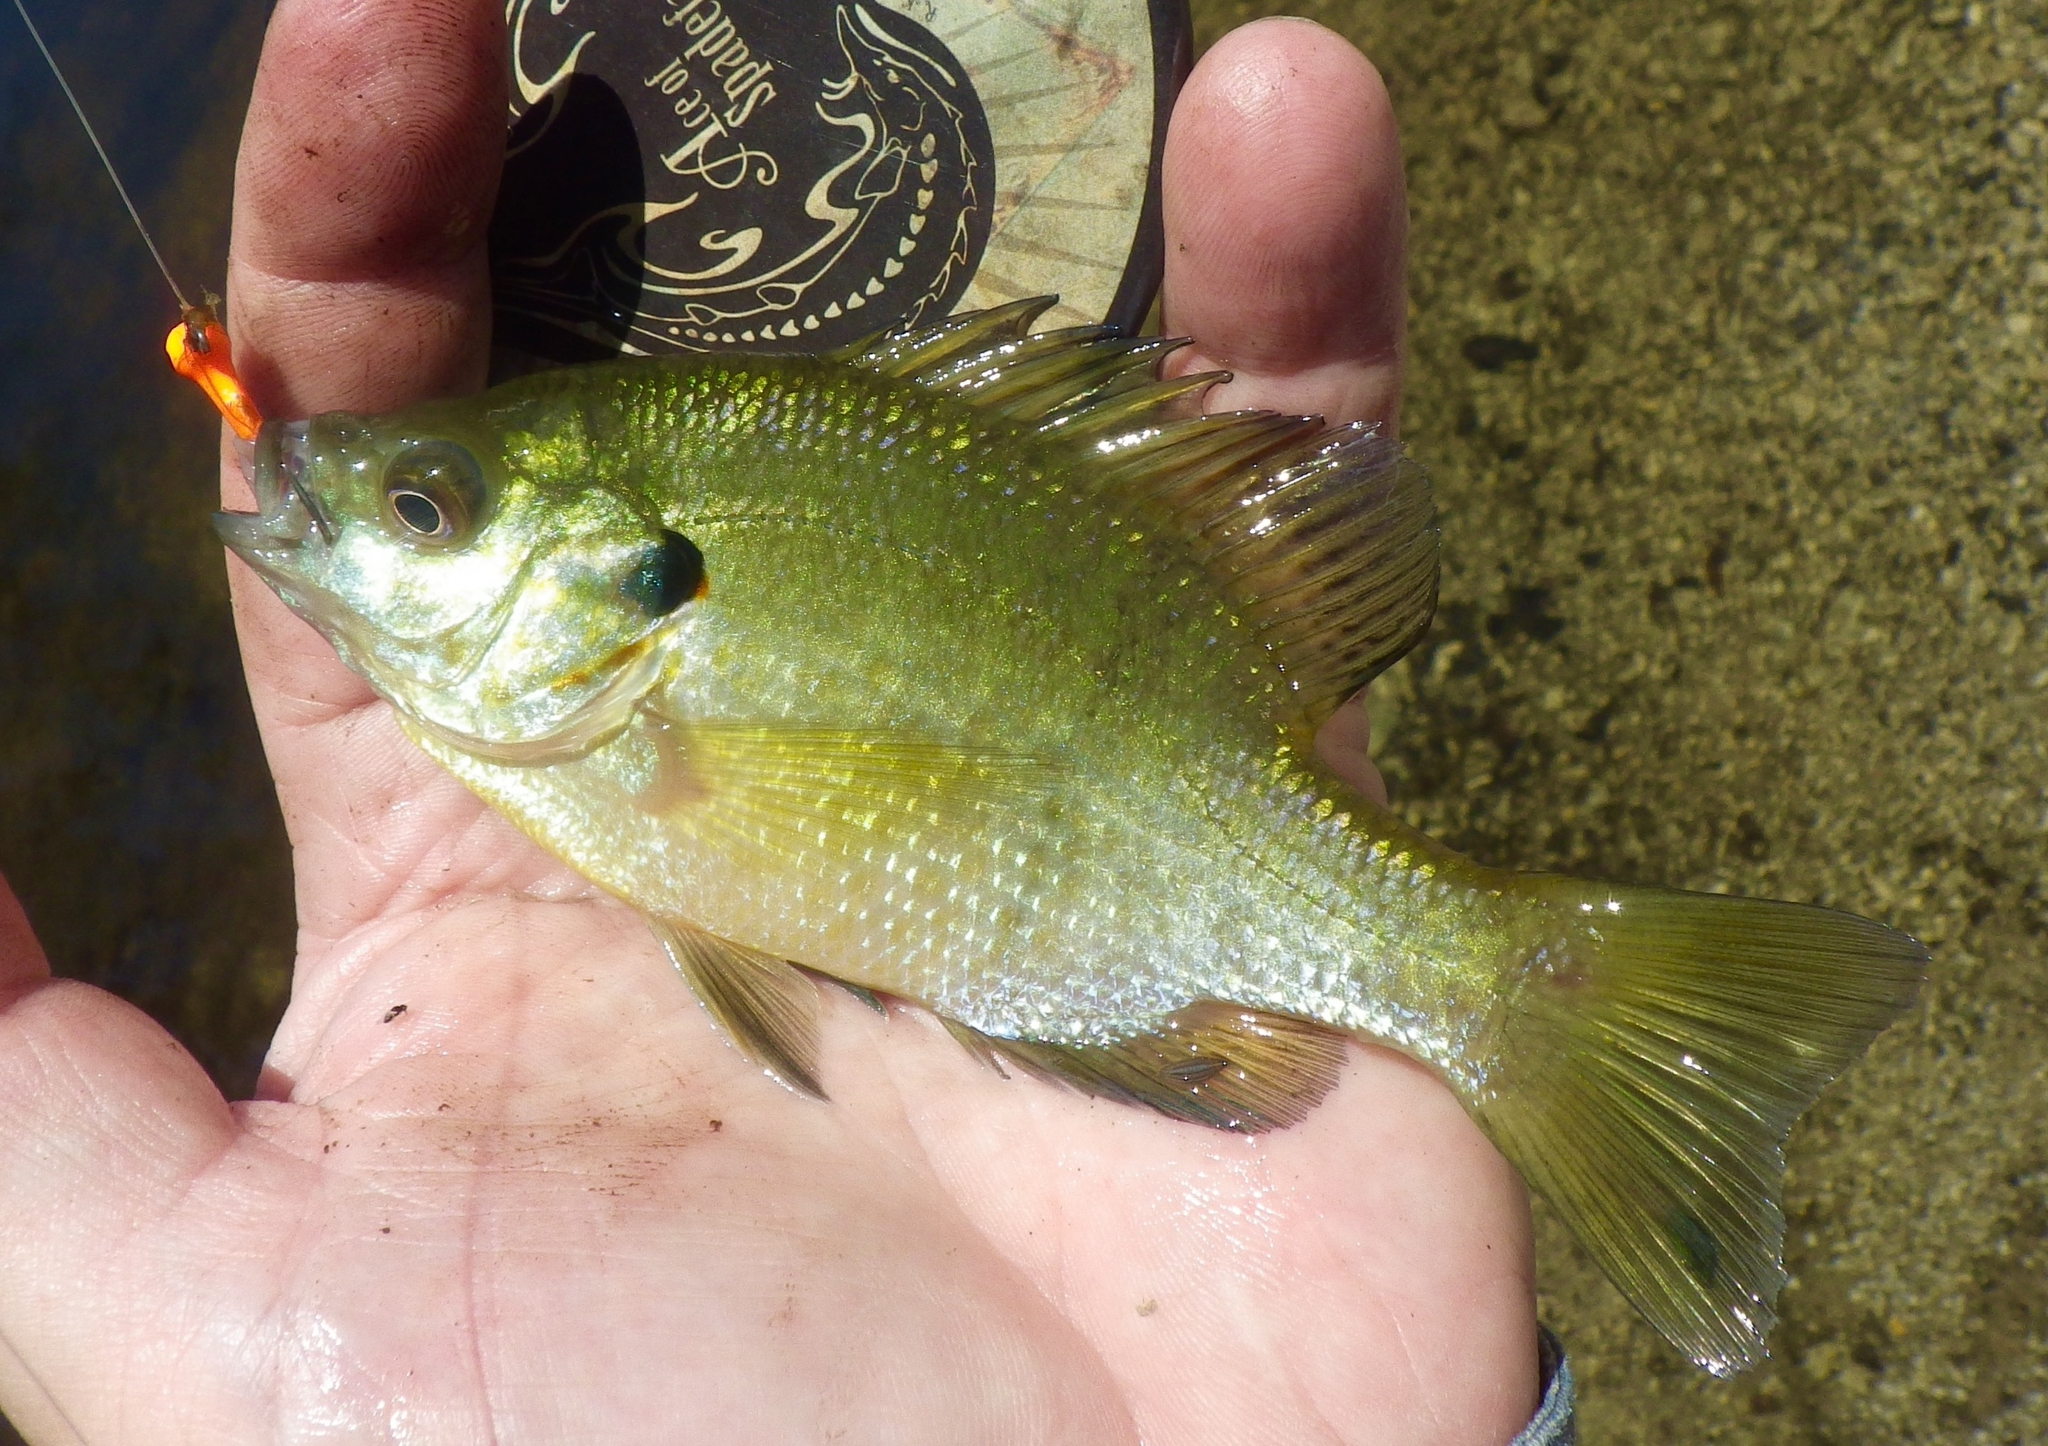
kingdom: Animalia
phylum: Chordata
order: Perciformes
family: Centrarchidae
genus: Lepomis
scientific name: Lepomis microlophus
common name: Redear sunfish
